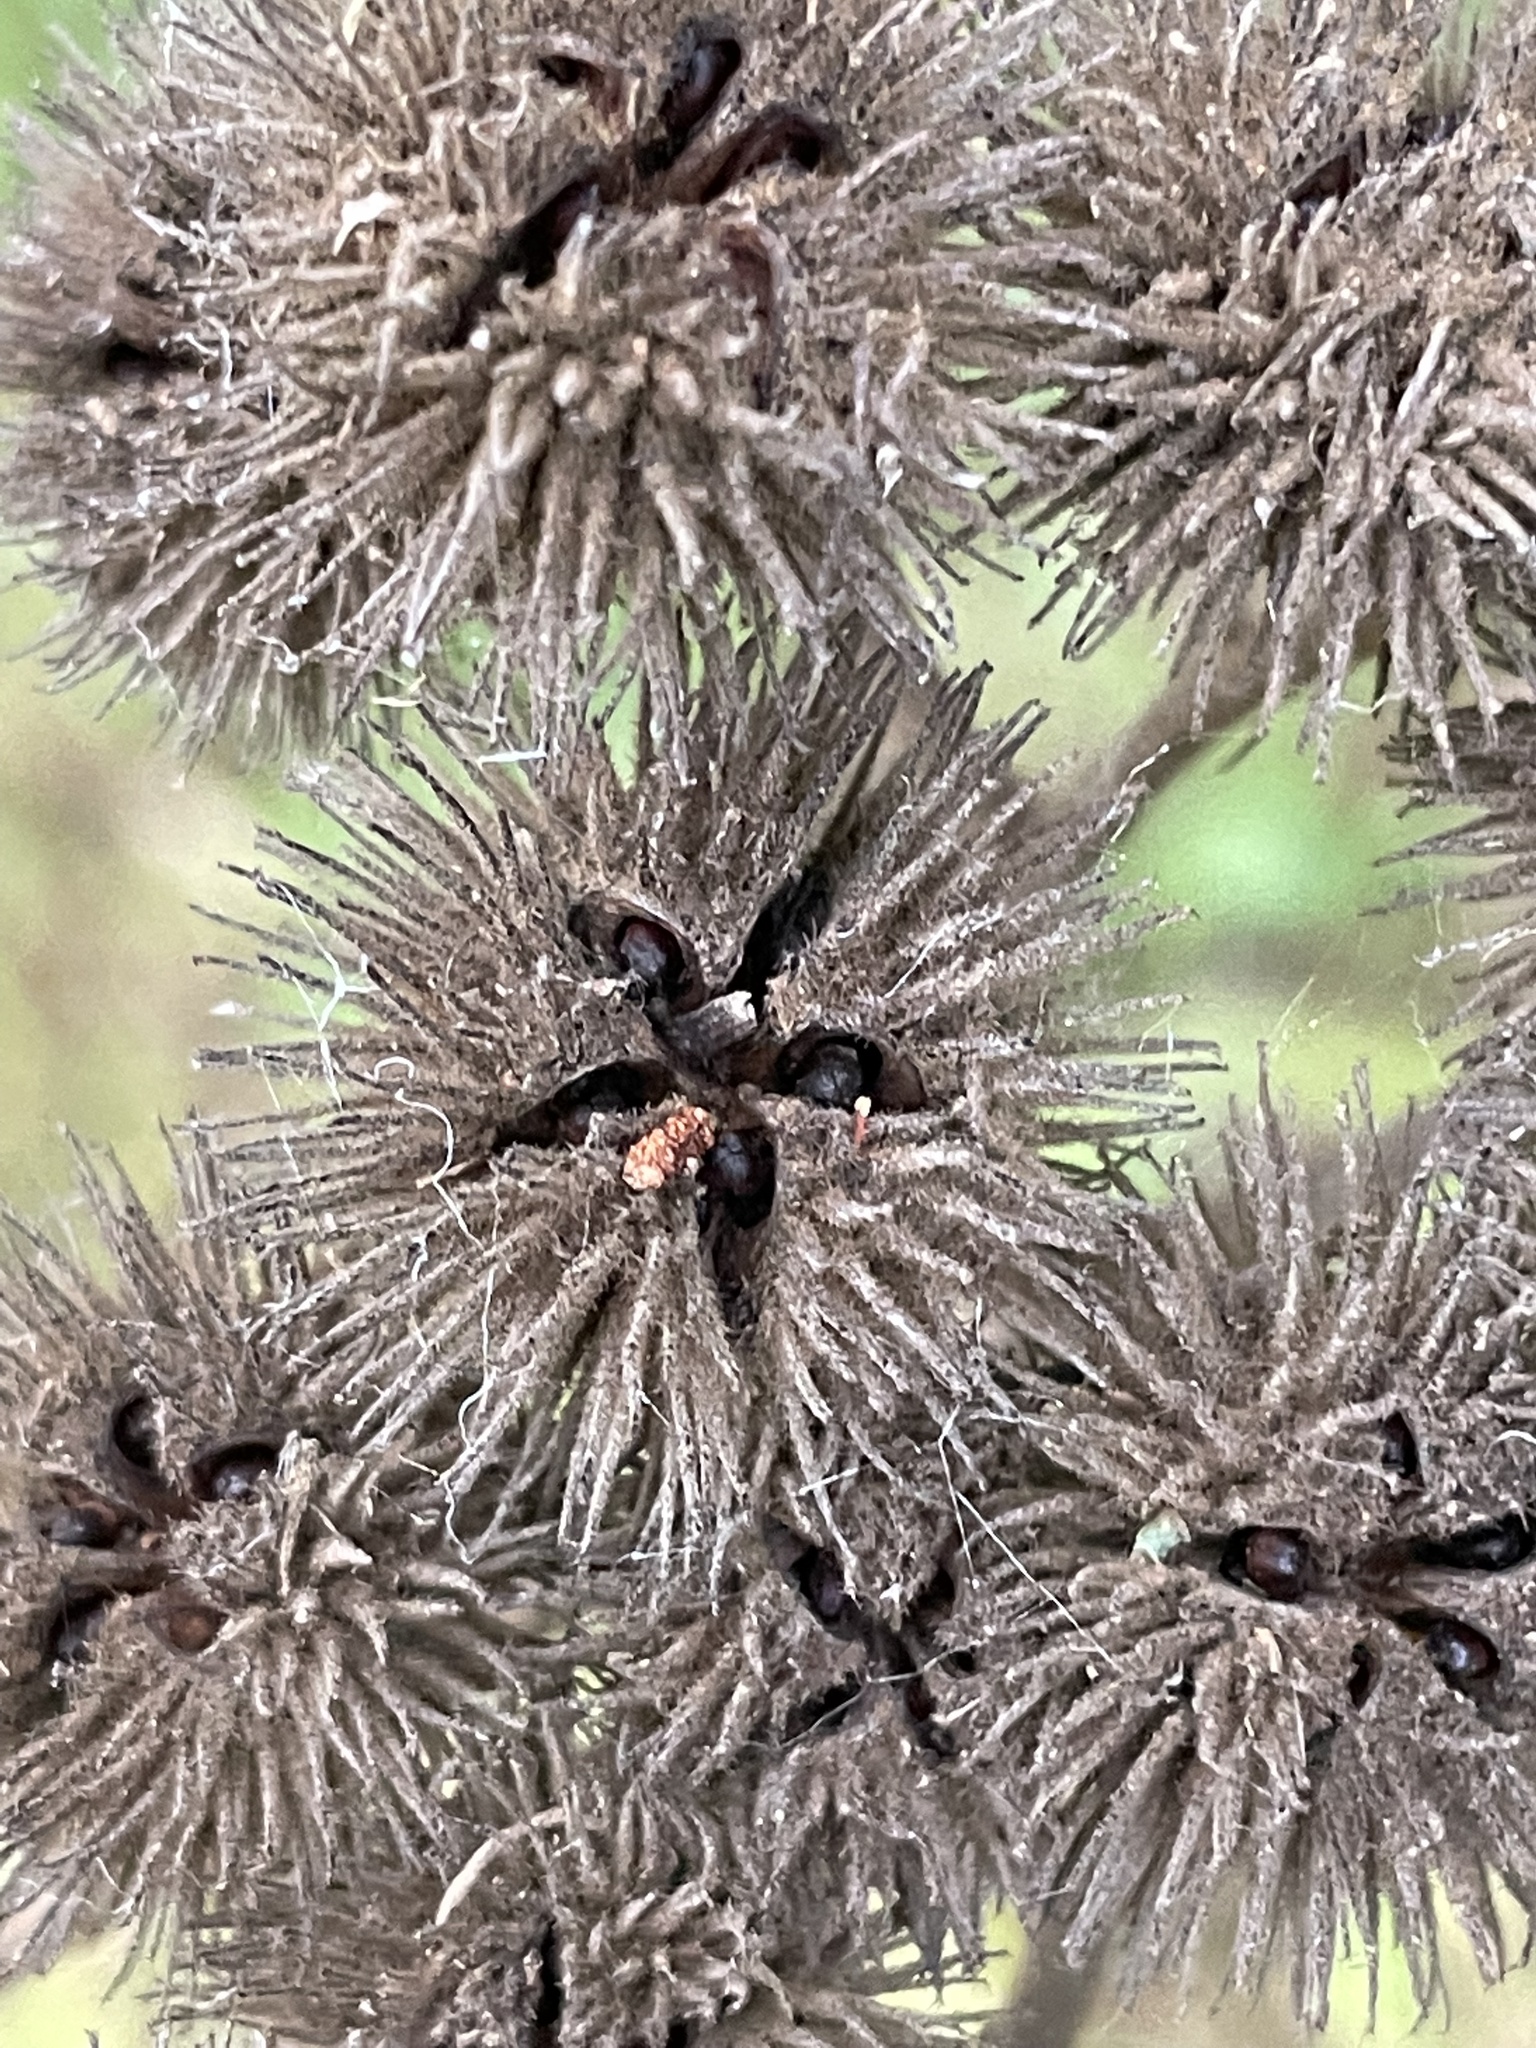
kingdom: Plantae
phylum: Tracheophyta
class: Magnoliopsida
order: Malvales
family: Malvaceae
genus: Commersonia
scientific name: Commersonia bartramia
